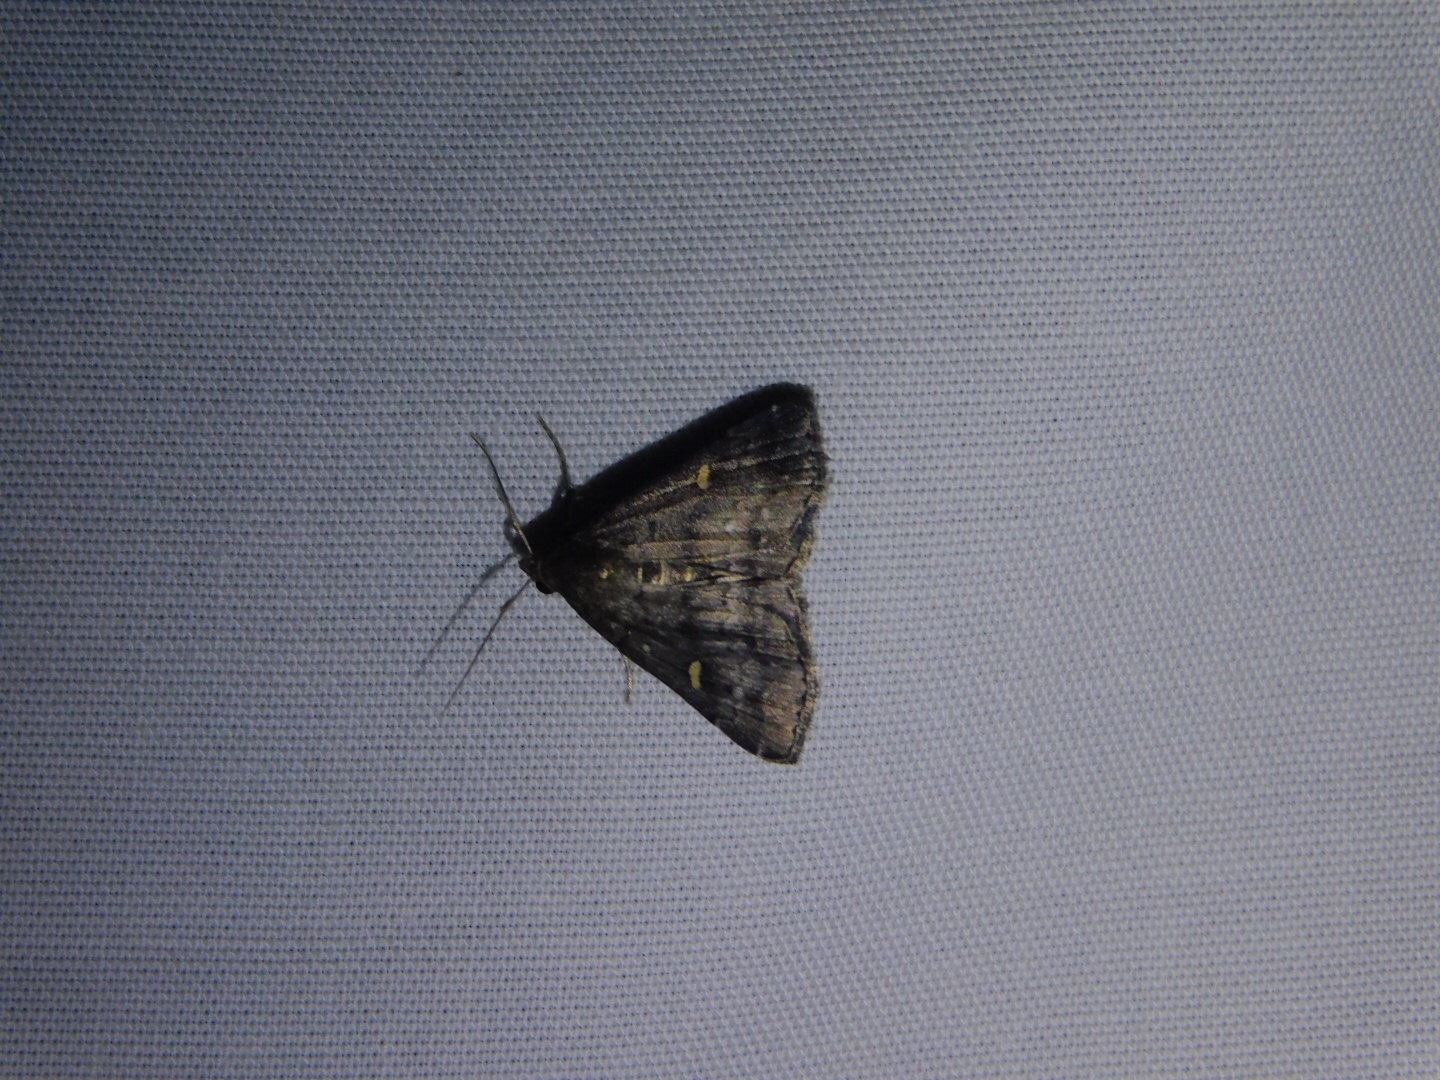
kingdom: Animalia
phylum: Arthropoda
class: Insecta
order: Lepidoptera
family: Erebidae
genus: Tetanolita
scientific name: Tetanolita mynesalis
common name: Smoky tetanolita moth
